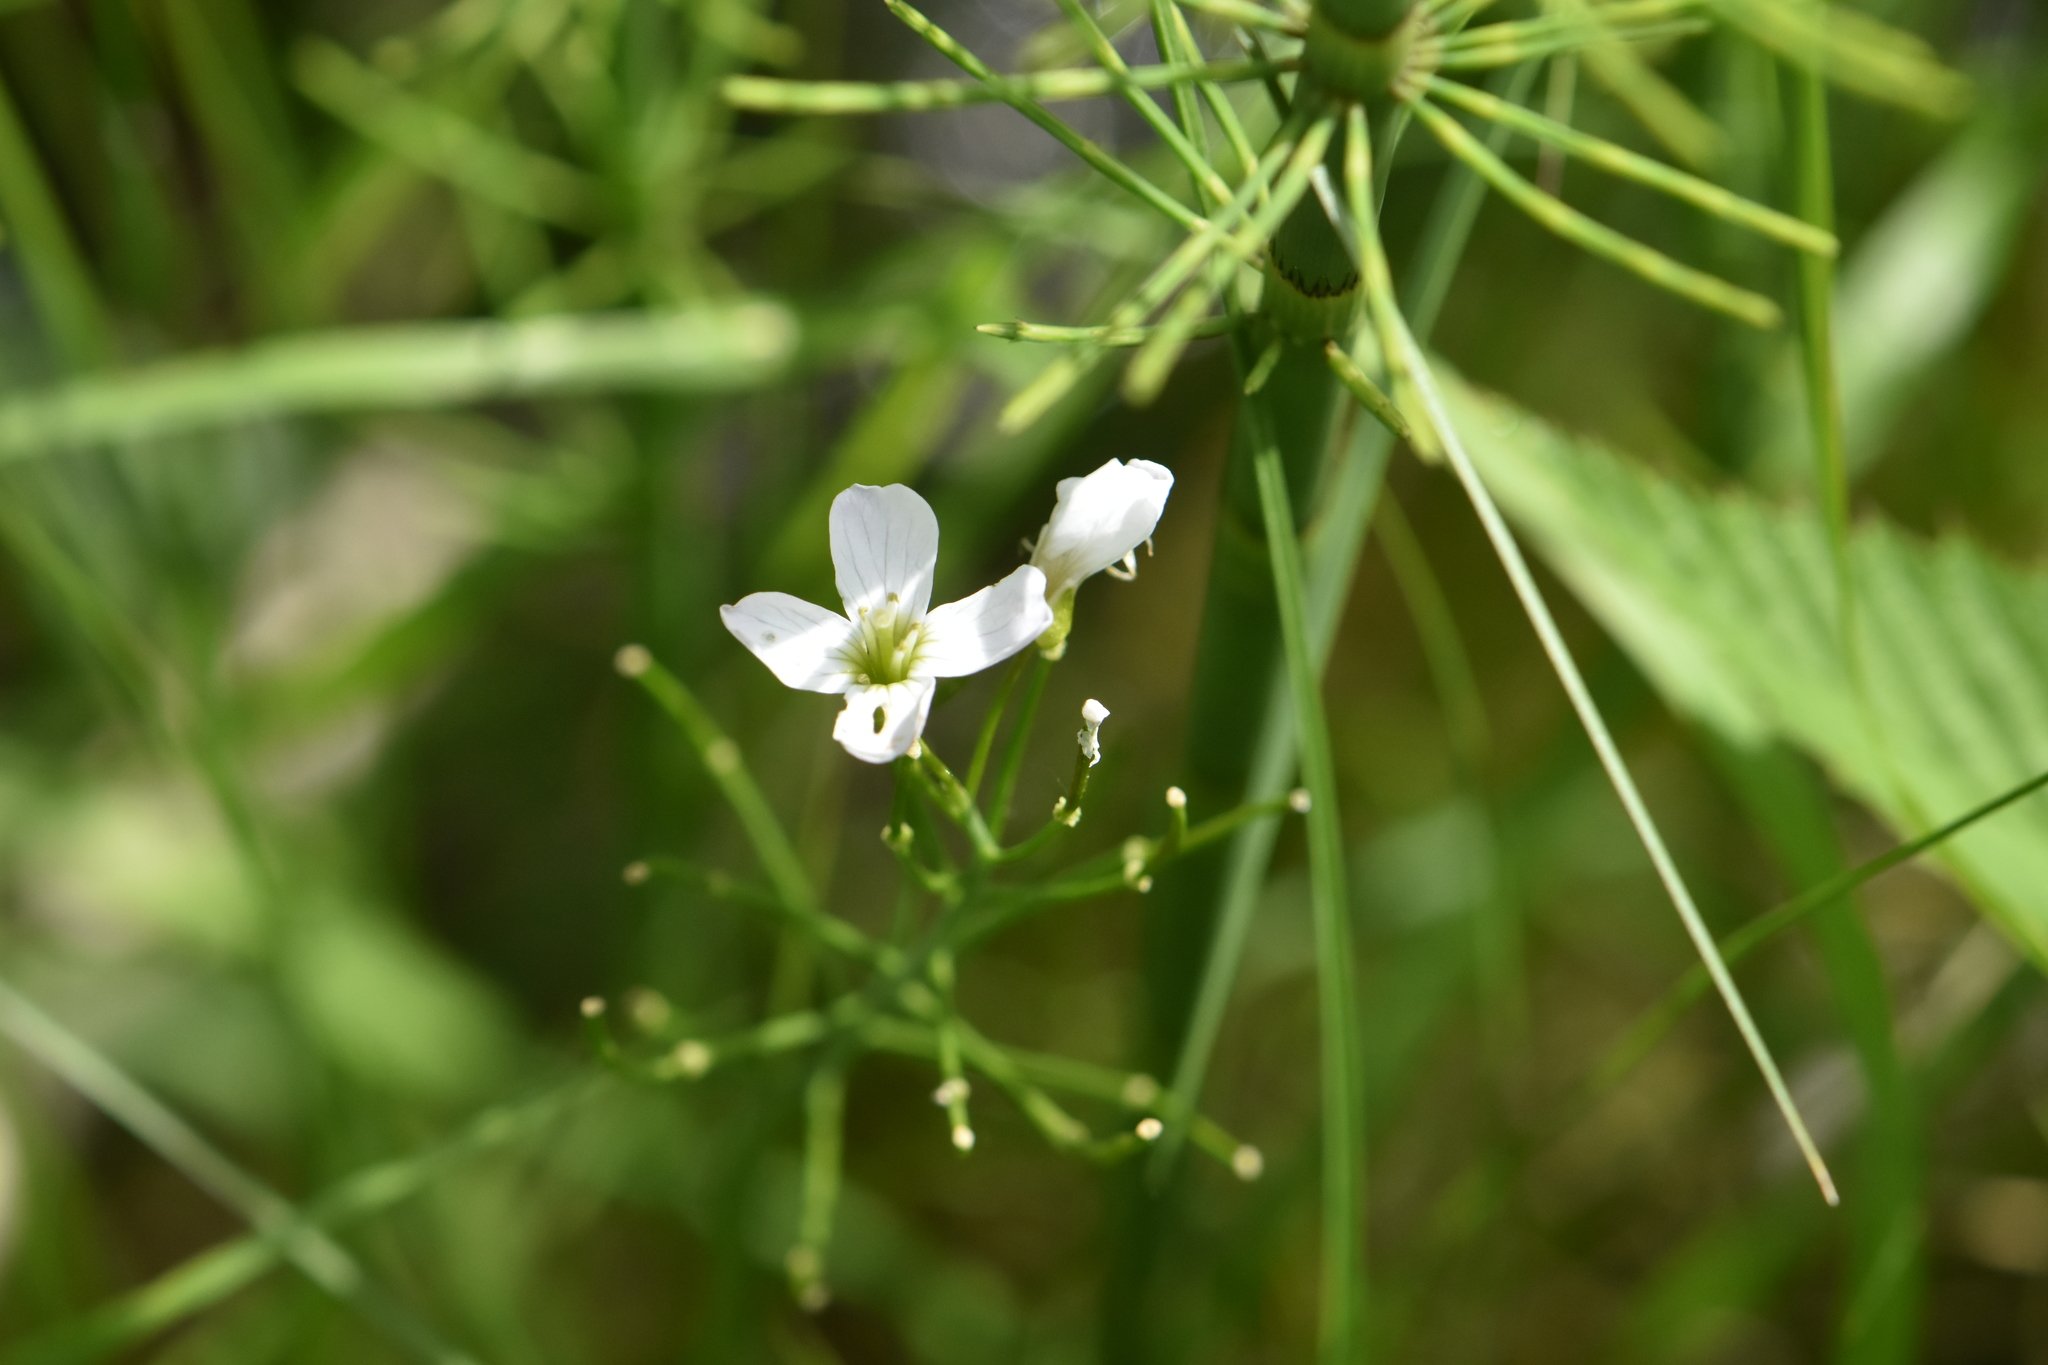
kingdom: Plantae
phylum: Tracheophyta
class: Magnoliopsida
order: Brassicales
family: Brassicaceae
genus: Cardamine
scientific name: Cardamine dentata
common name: Toothed bittercress
